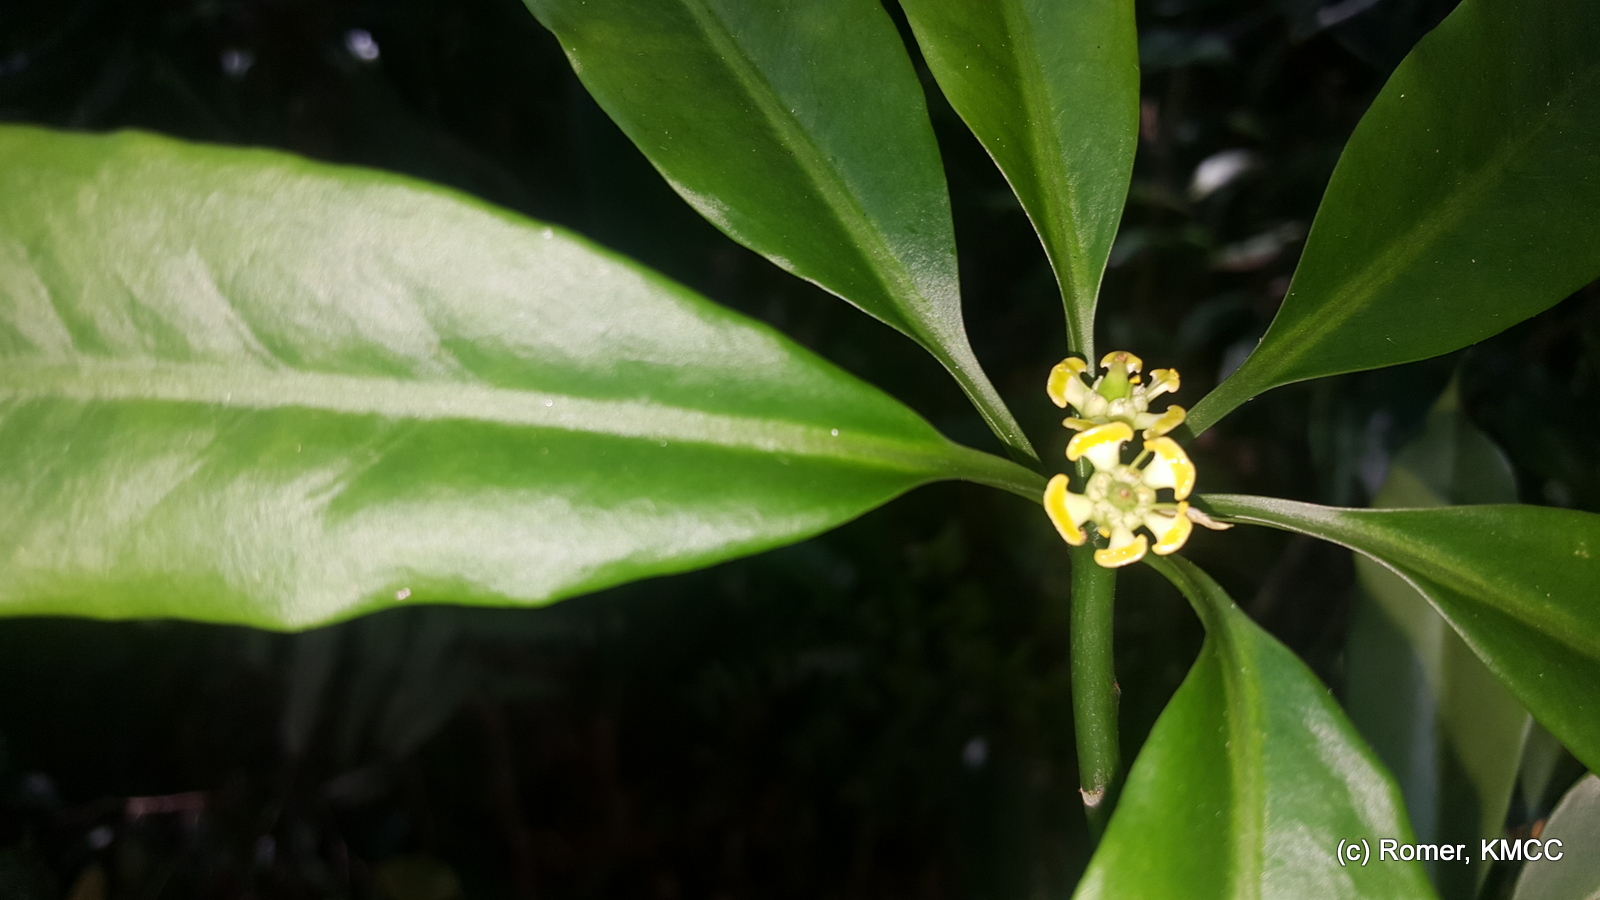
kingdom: Plantae
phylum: Tracheophyta
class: Magnoliopsida
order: Malpighiales
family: Euphorbiaceae
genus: Euphorbia
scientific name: Euphorbia pachysantha
